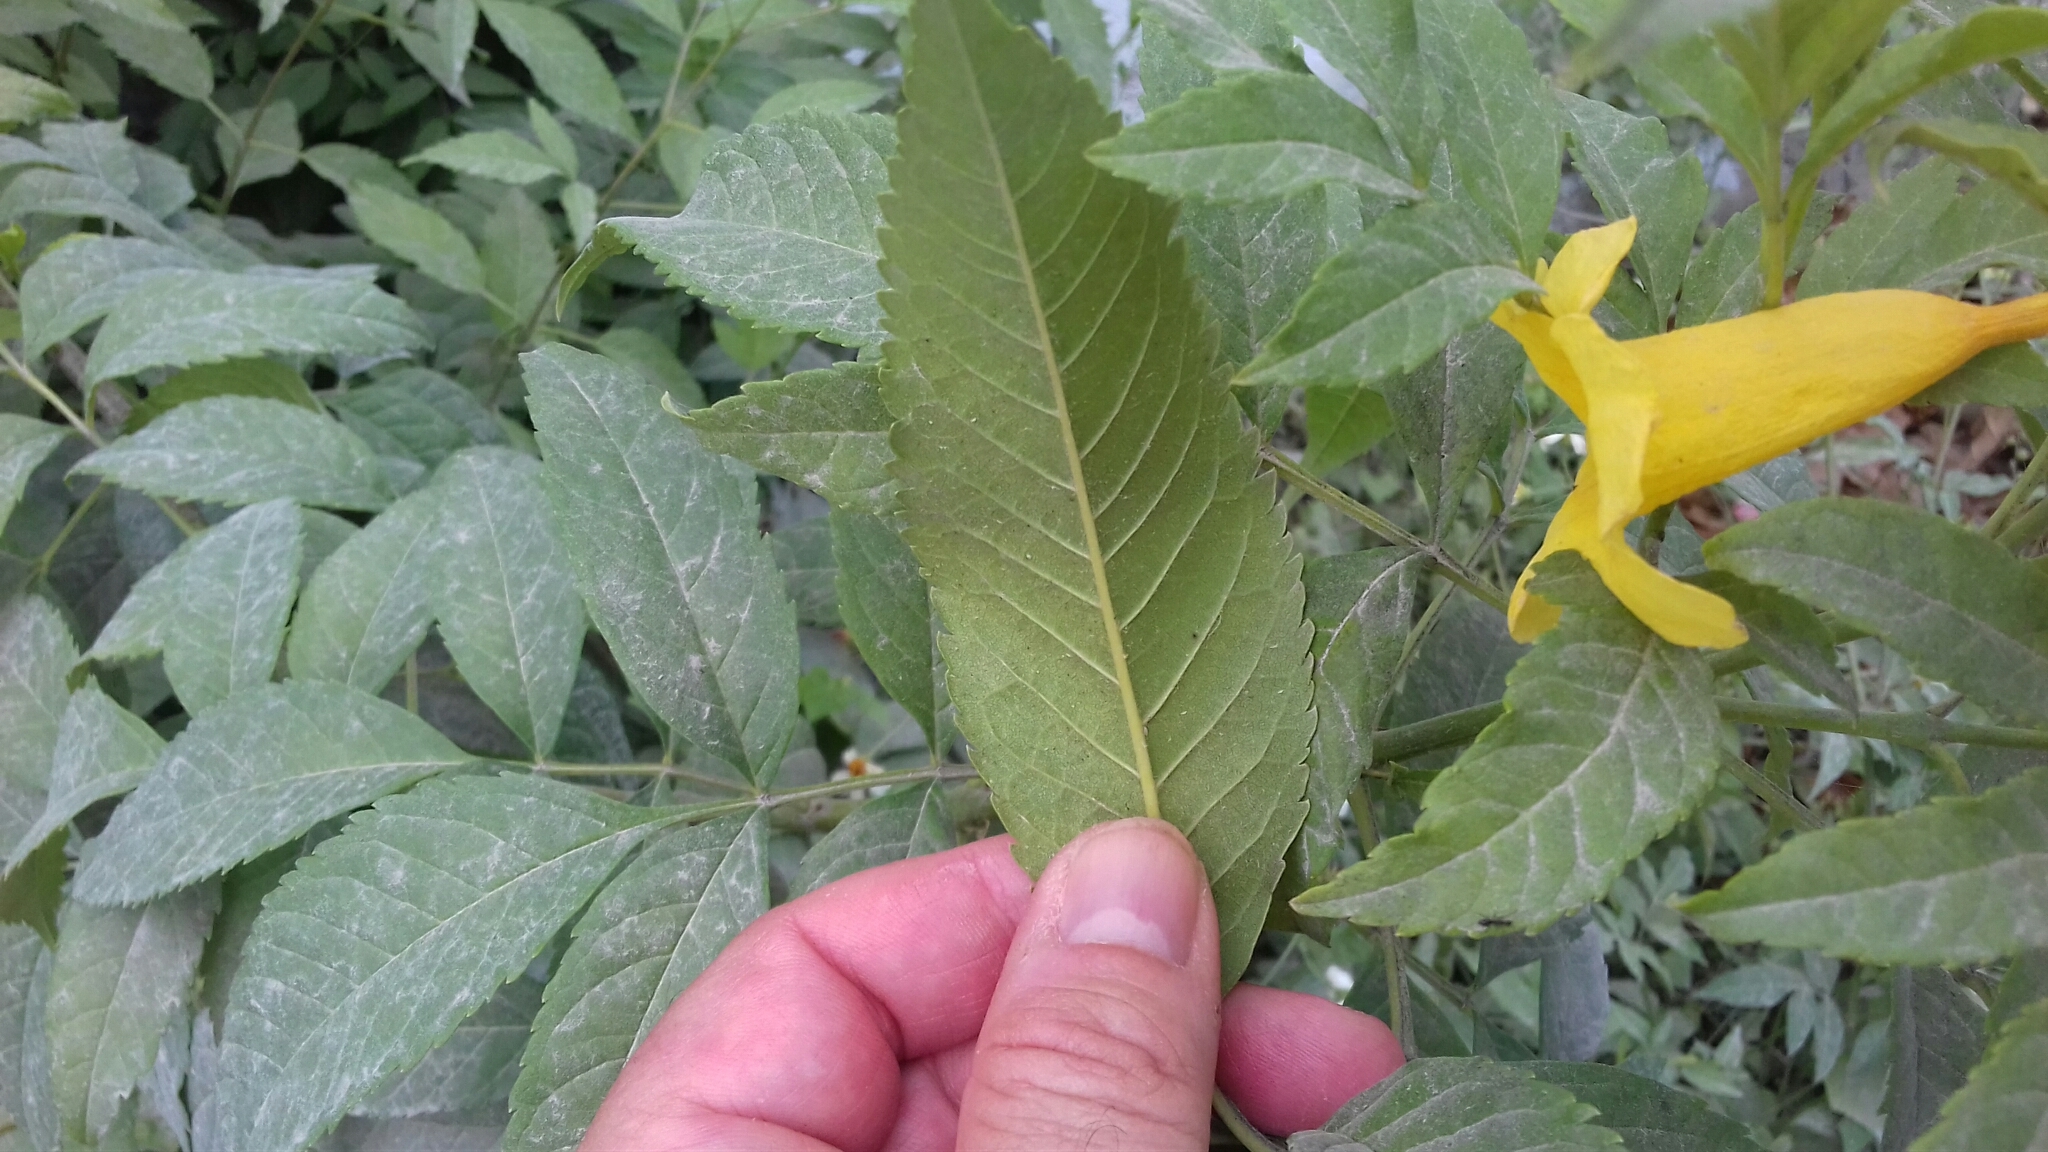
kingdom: Plantae
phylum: Tracheophyta
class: Magnoliopsida
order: Lamiales
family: Bignoniaceae
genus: Tecoma
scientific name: Tecoma stans
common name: Yellow trumpetbush
